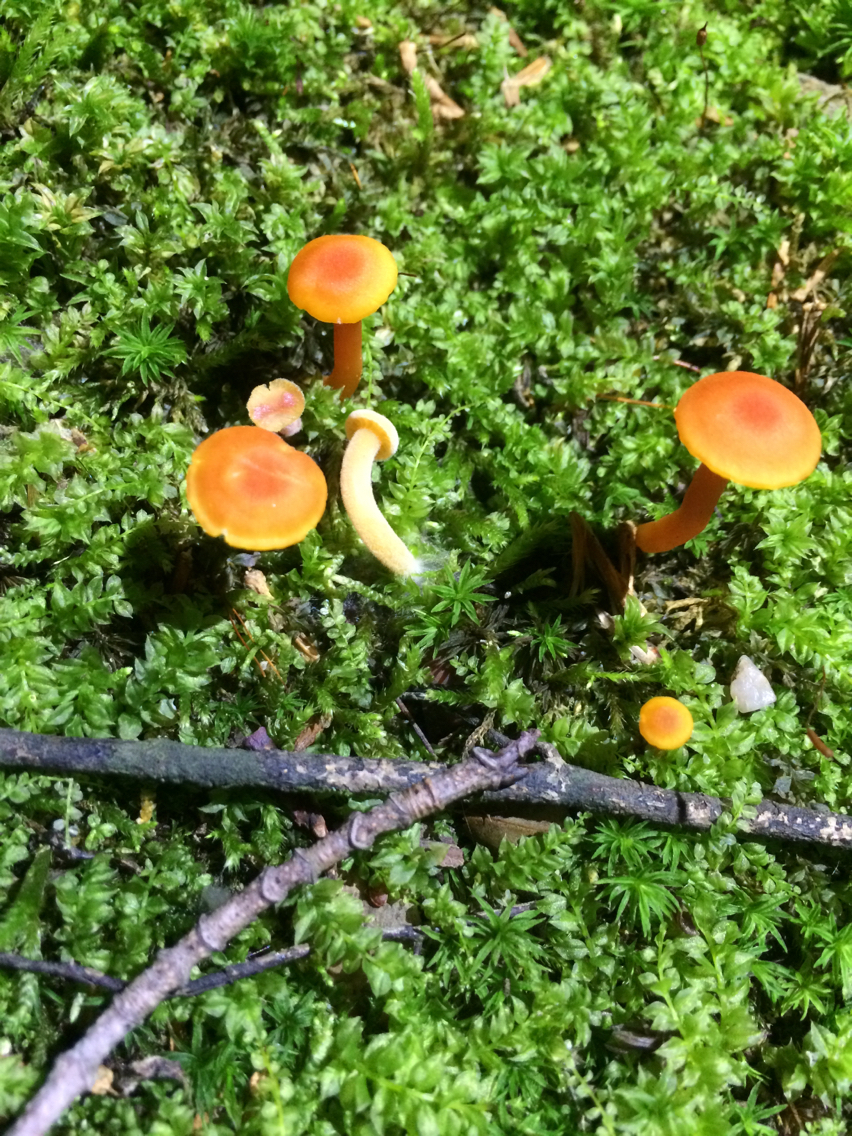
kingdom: Fungi
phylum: Basidiomycota
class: Agaricomycetes
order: Agaricales
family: Mycenaceae
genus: Mycena
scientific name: Mycena leaiana
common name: Orange mycena
